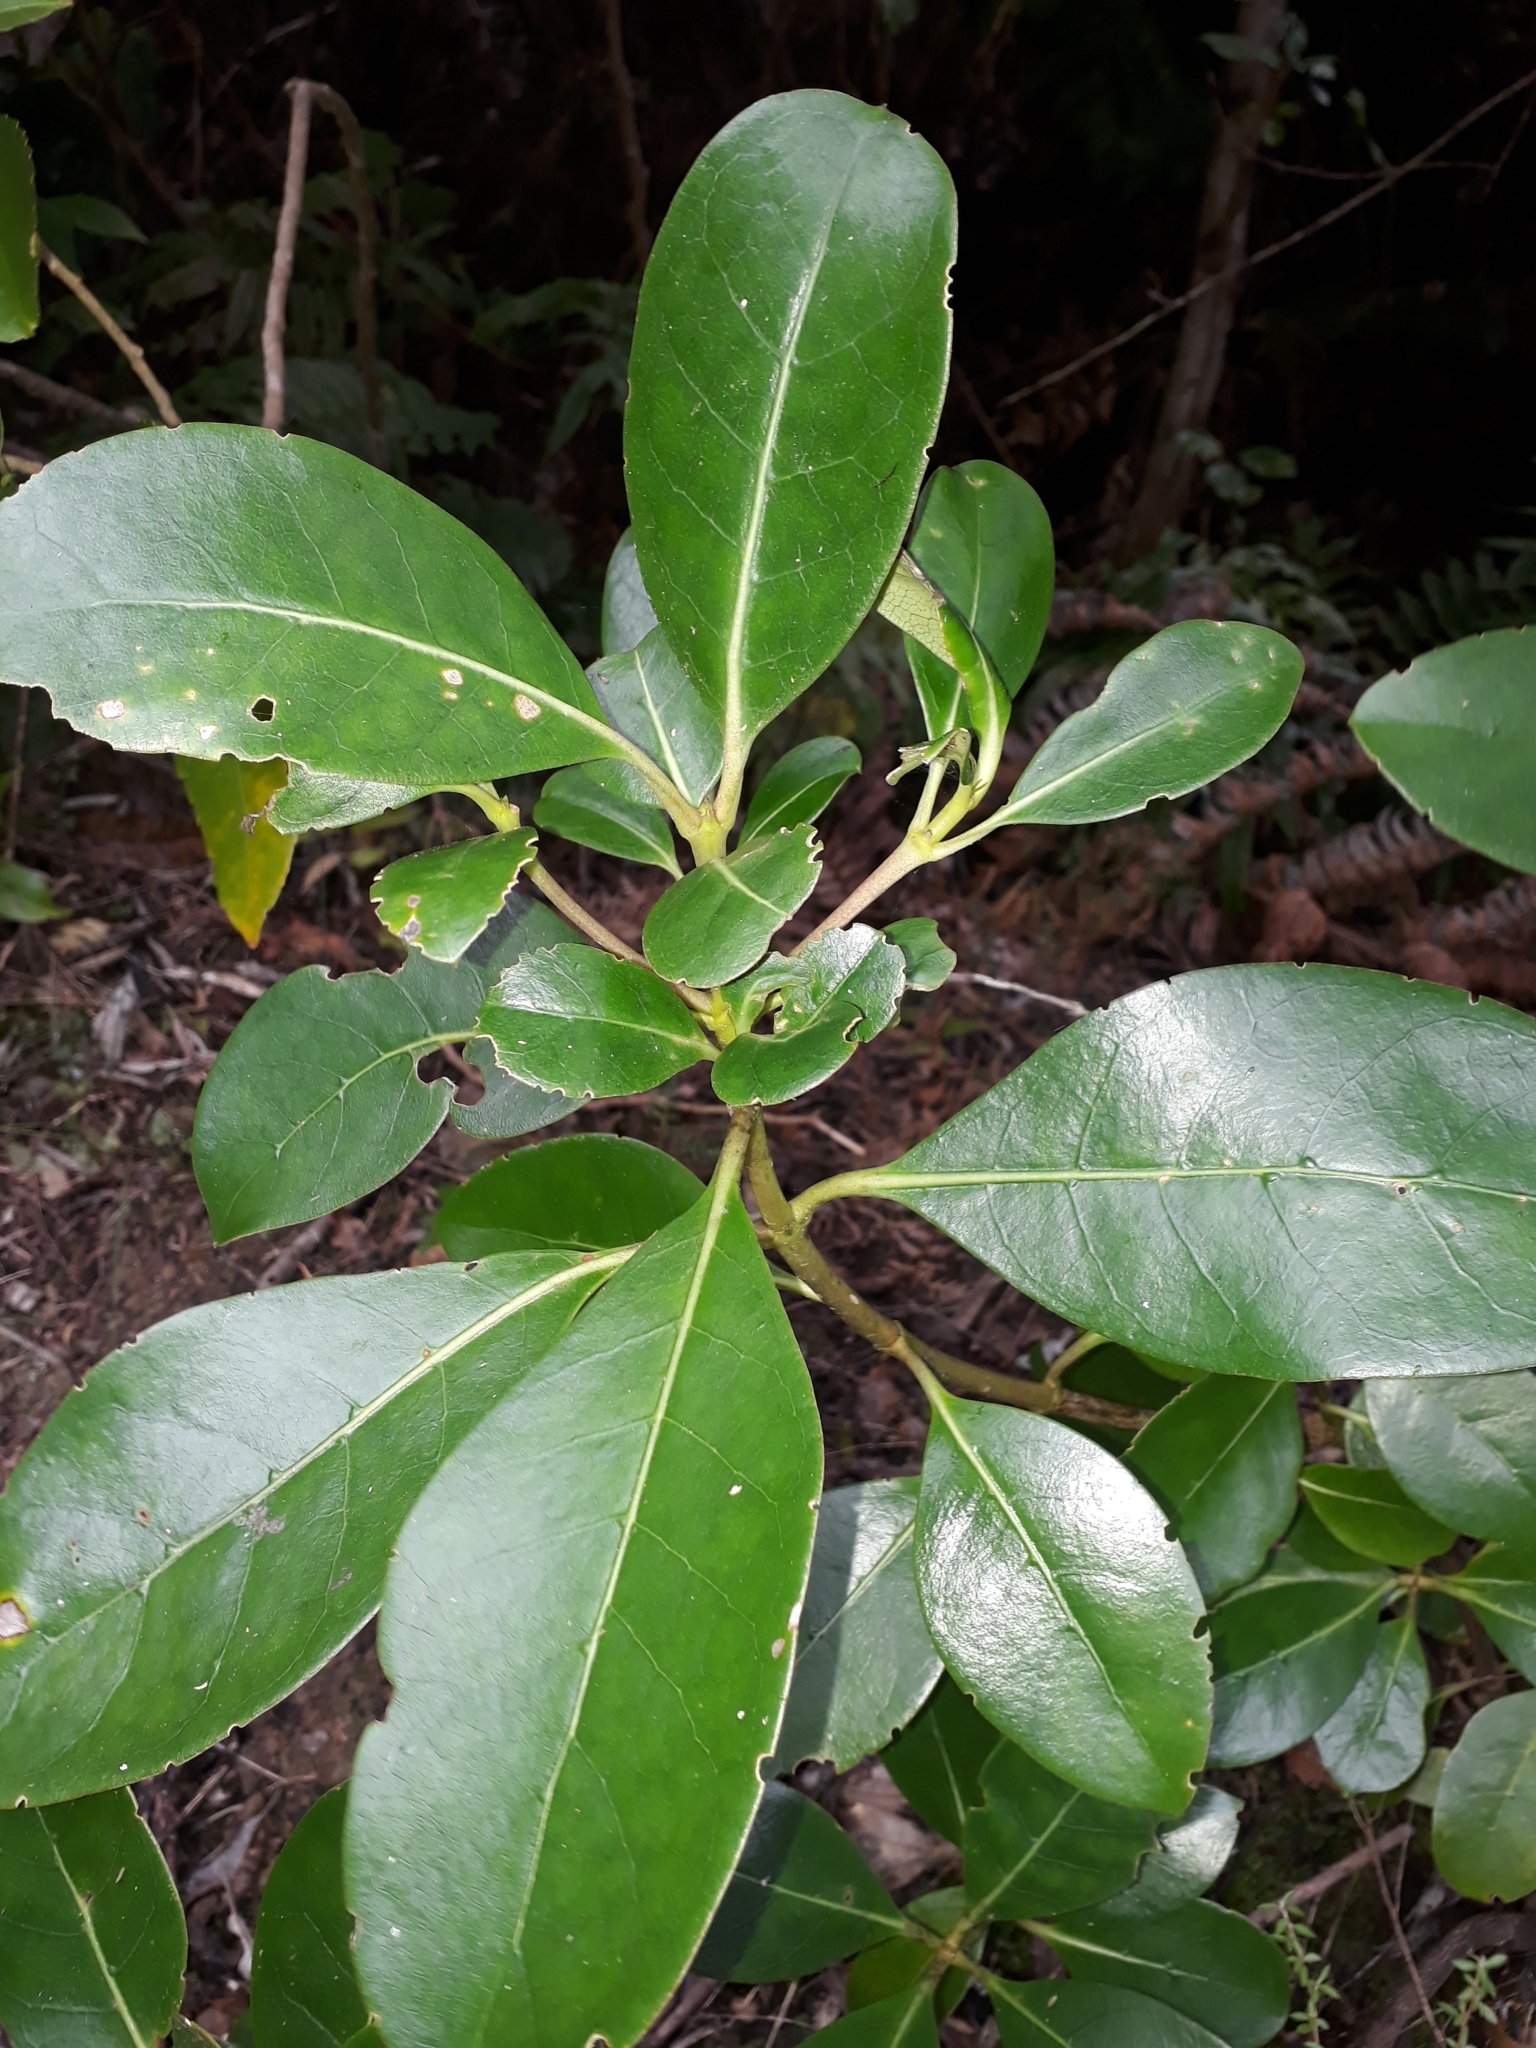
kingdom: Plantae
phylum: Tracheophyta
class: Magnoliopsida
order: Gentianales
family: Rubiaceae
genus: Coprosma
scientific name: Coprosma lucida
